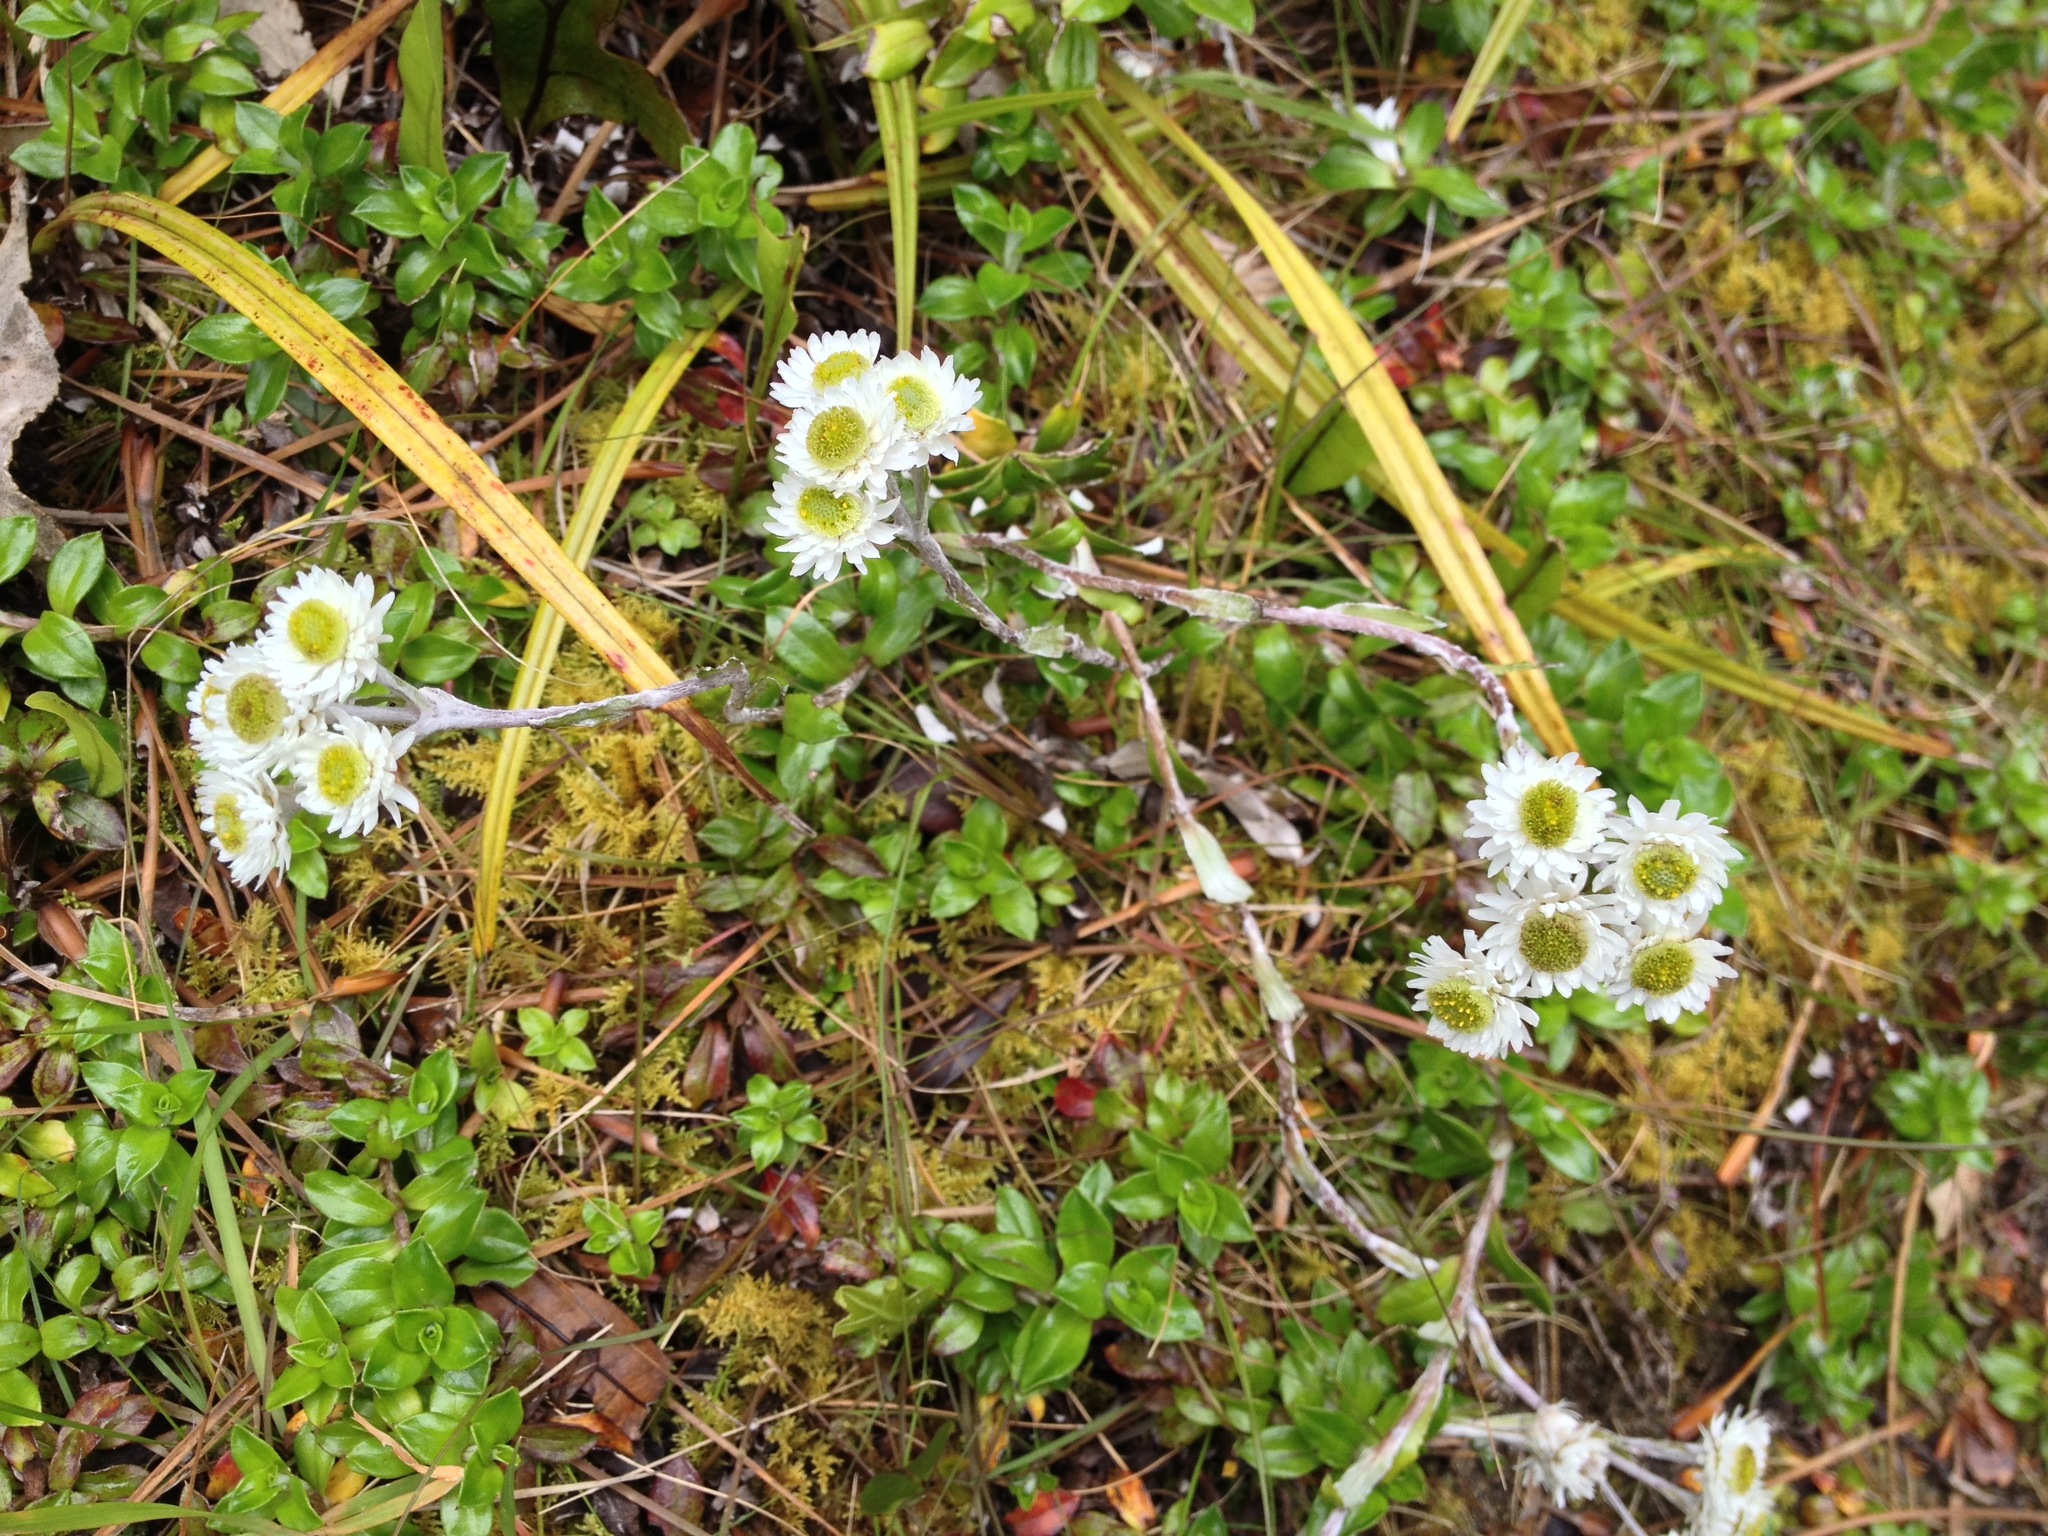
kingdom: Plantae
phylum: Tracheophyta
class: Magnoliopsida
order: Asterales
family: Asteraceae
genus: Anaphalioides
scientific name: Anaphalioides hookeri
